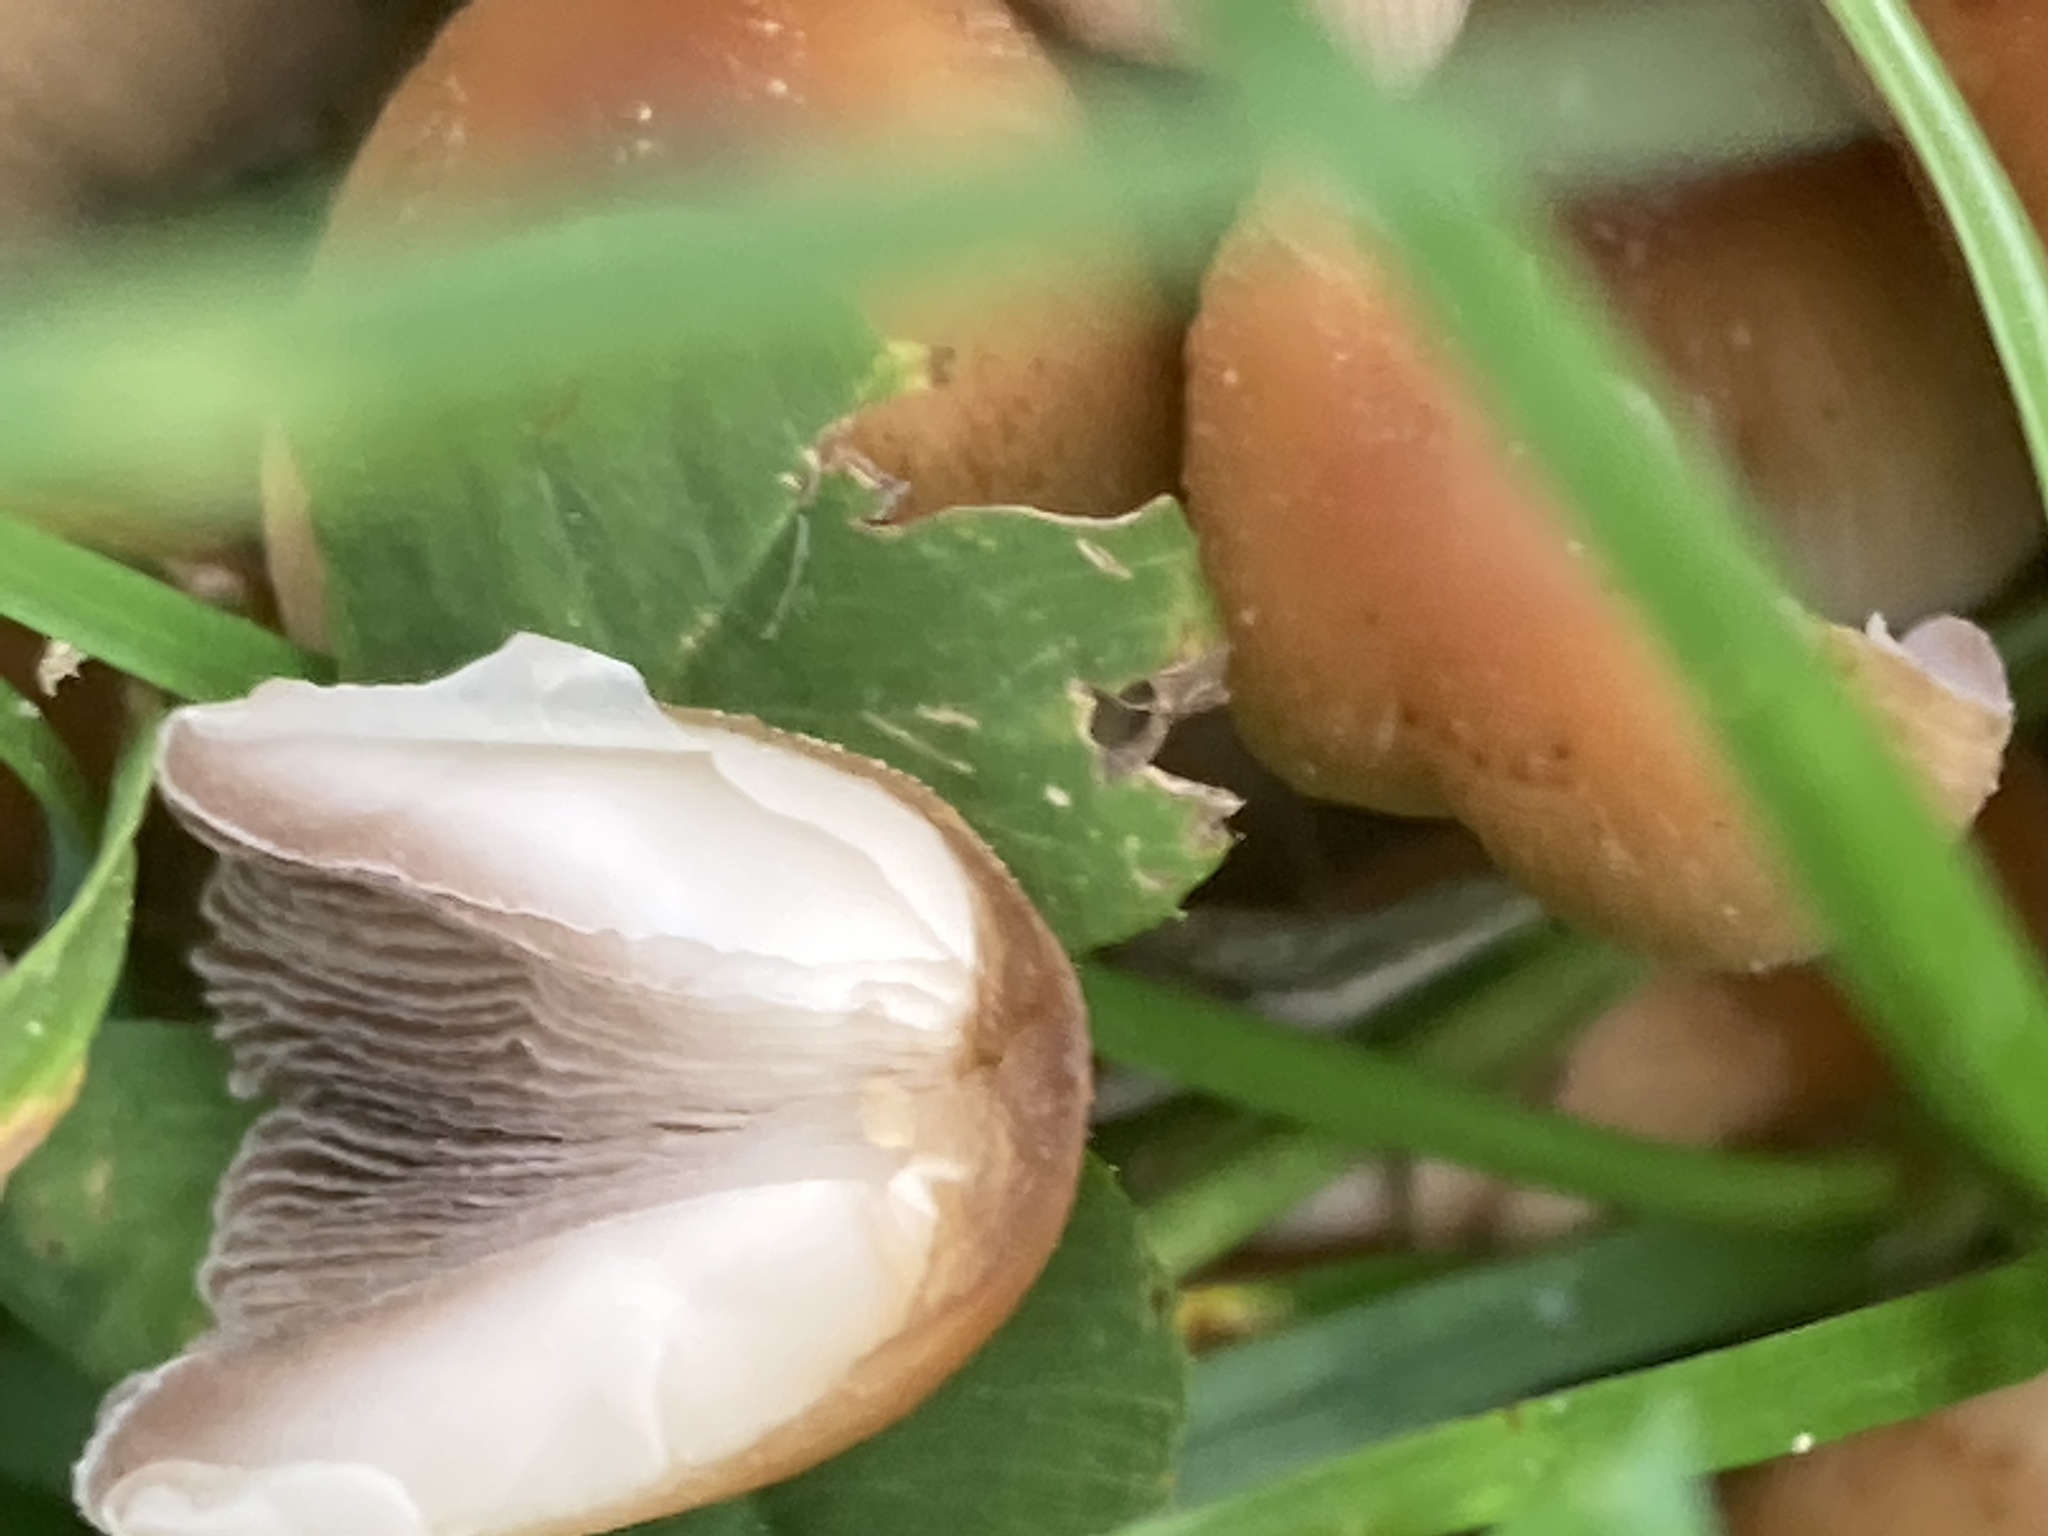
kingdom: Fungi
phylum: Basidiomycota
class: Agaricomycetes
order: Agaricales
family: Psathyrellaceae
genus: Coprinopsis
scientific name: Coprinopsis atramentaria
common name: Common ink-cap
